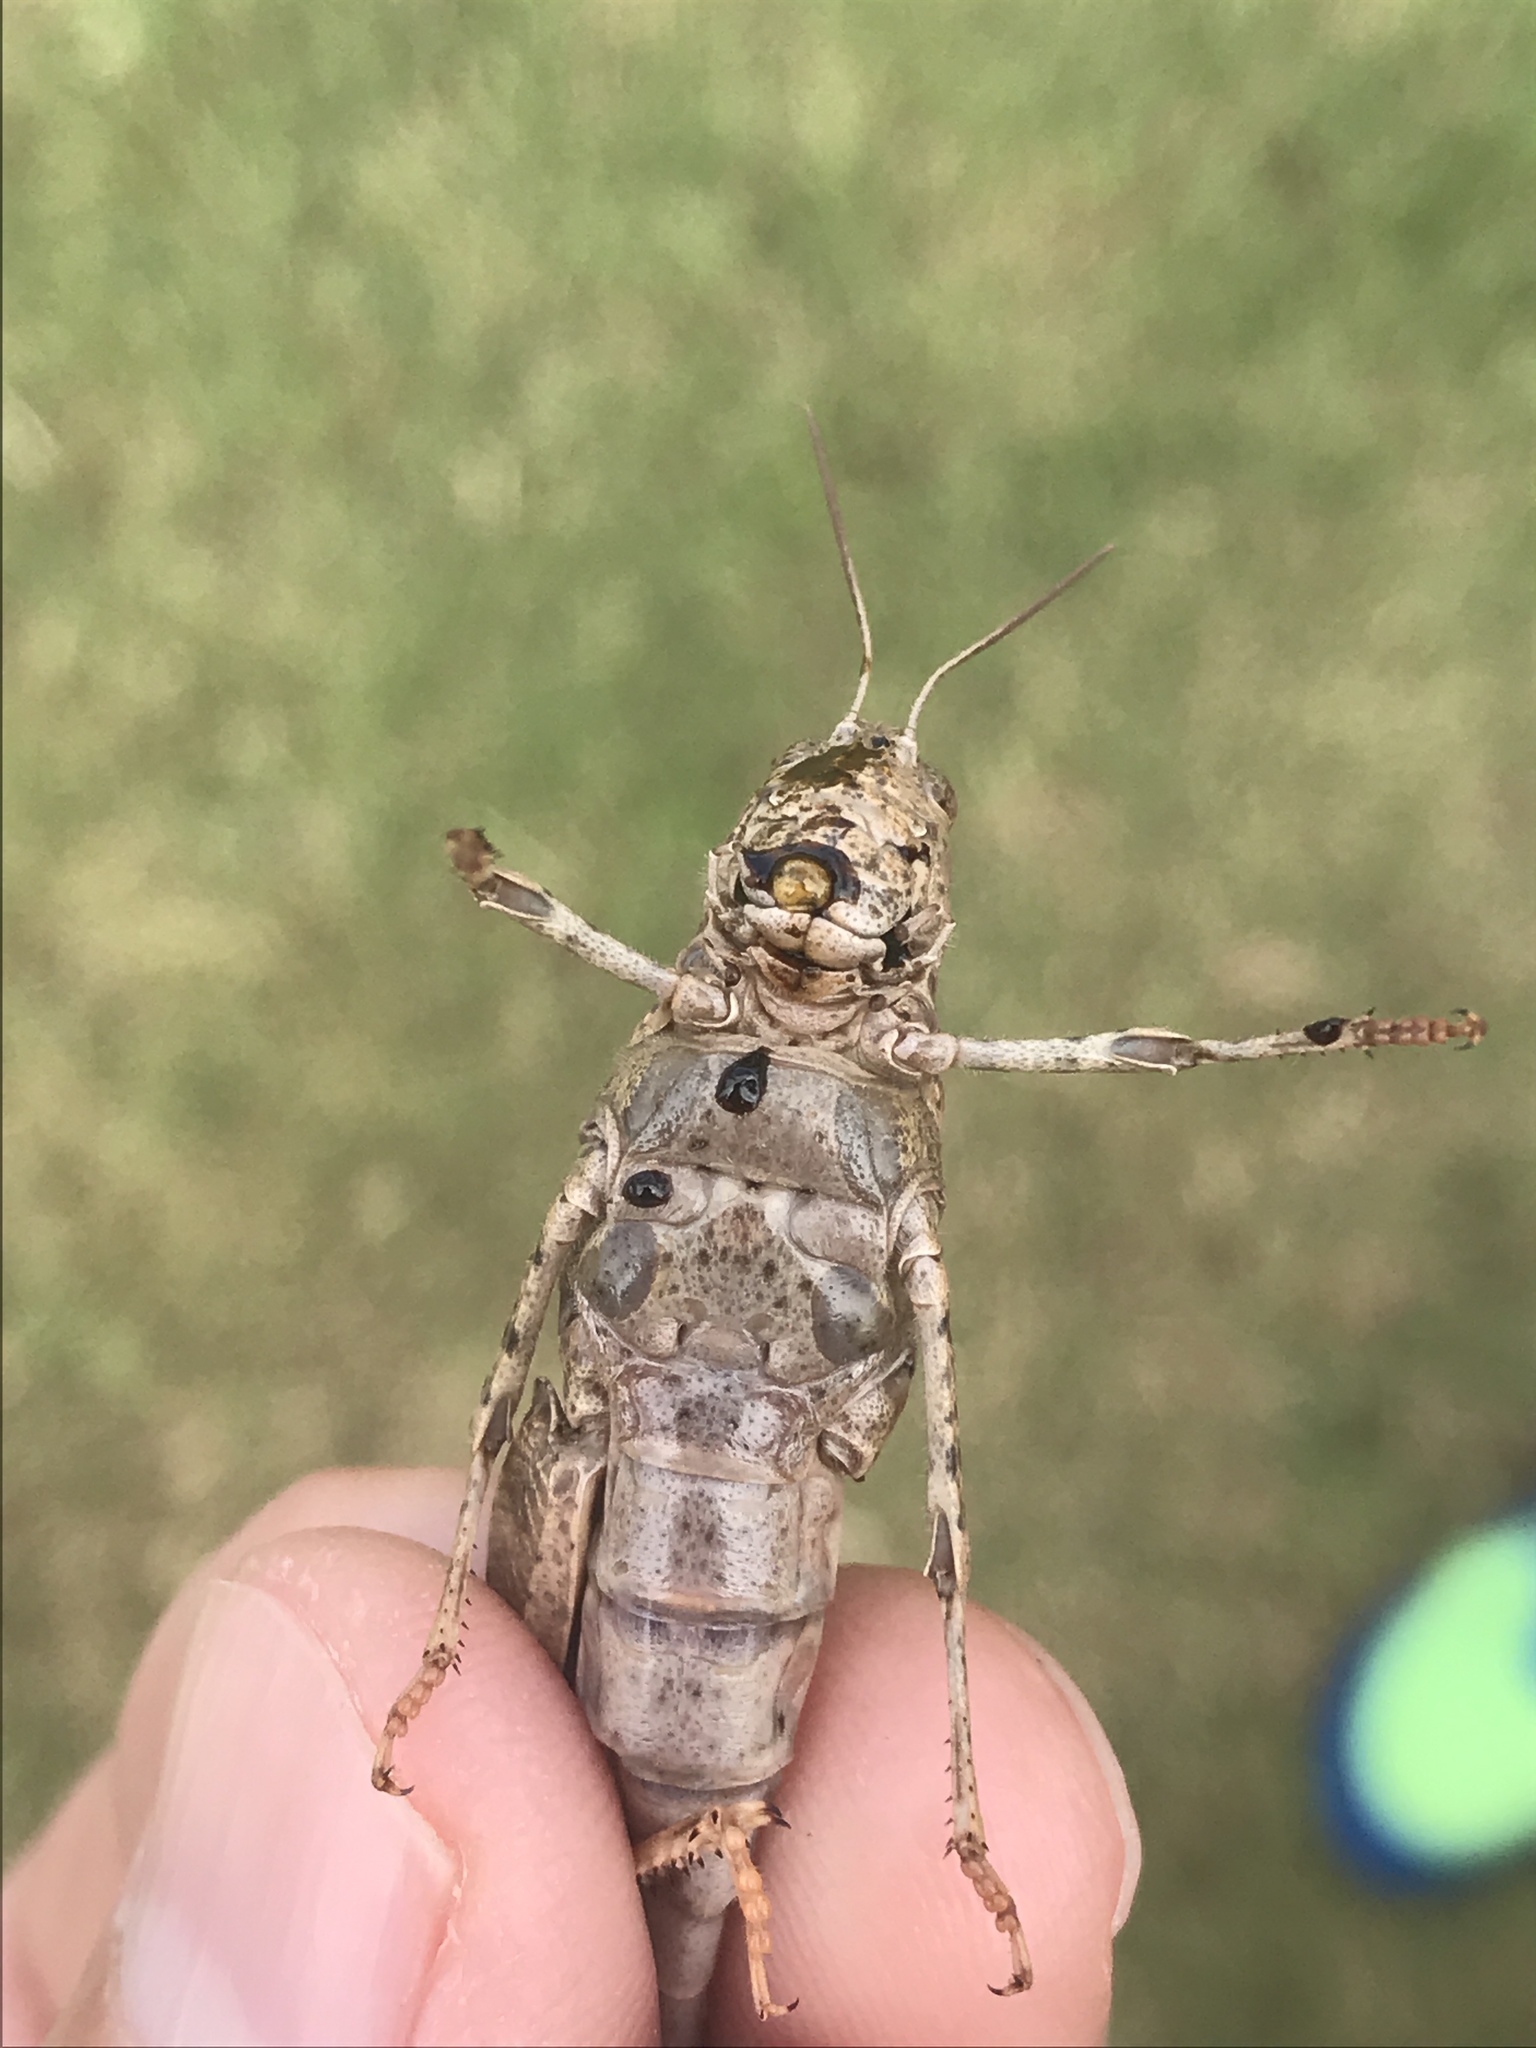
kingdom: Animalia
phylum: Arthropoda
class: Insecta
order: Orthoptera
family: Acrididae
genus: Dissosteira
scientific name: Dissosteira carolina
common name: Carolina grasshopper
